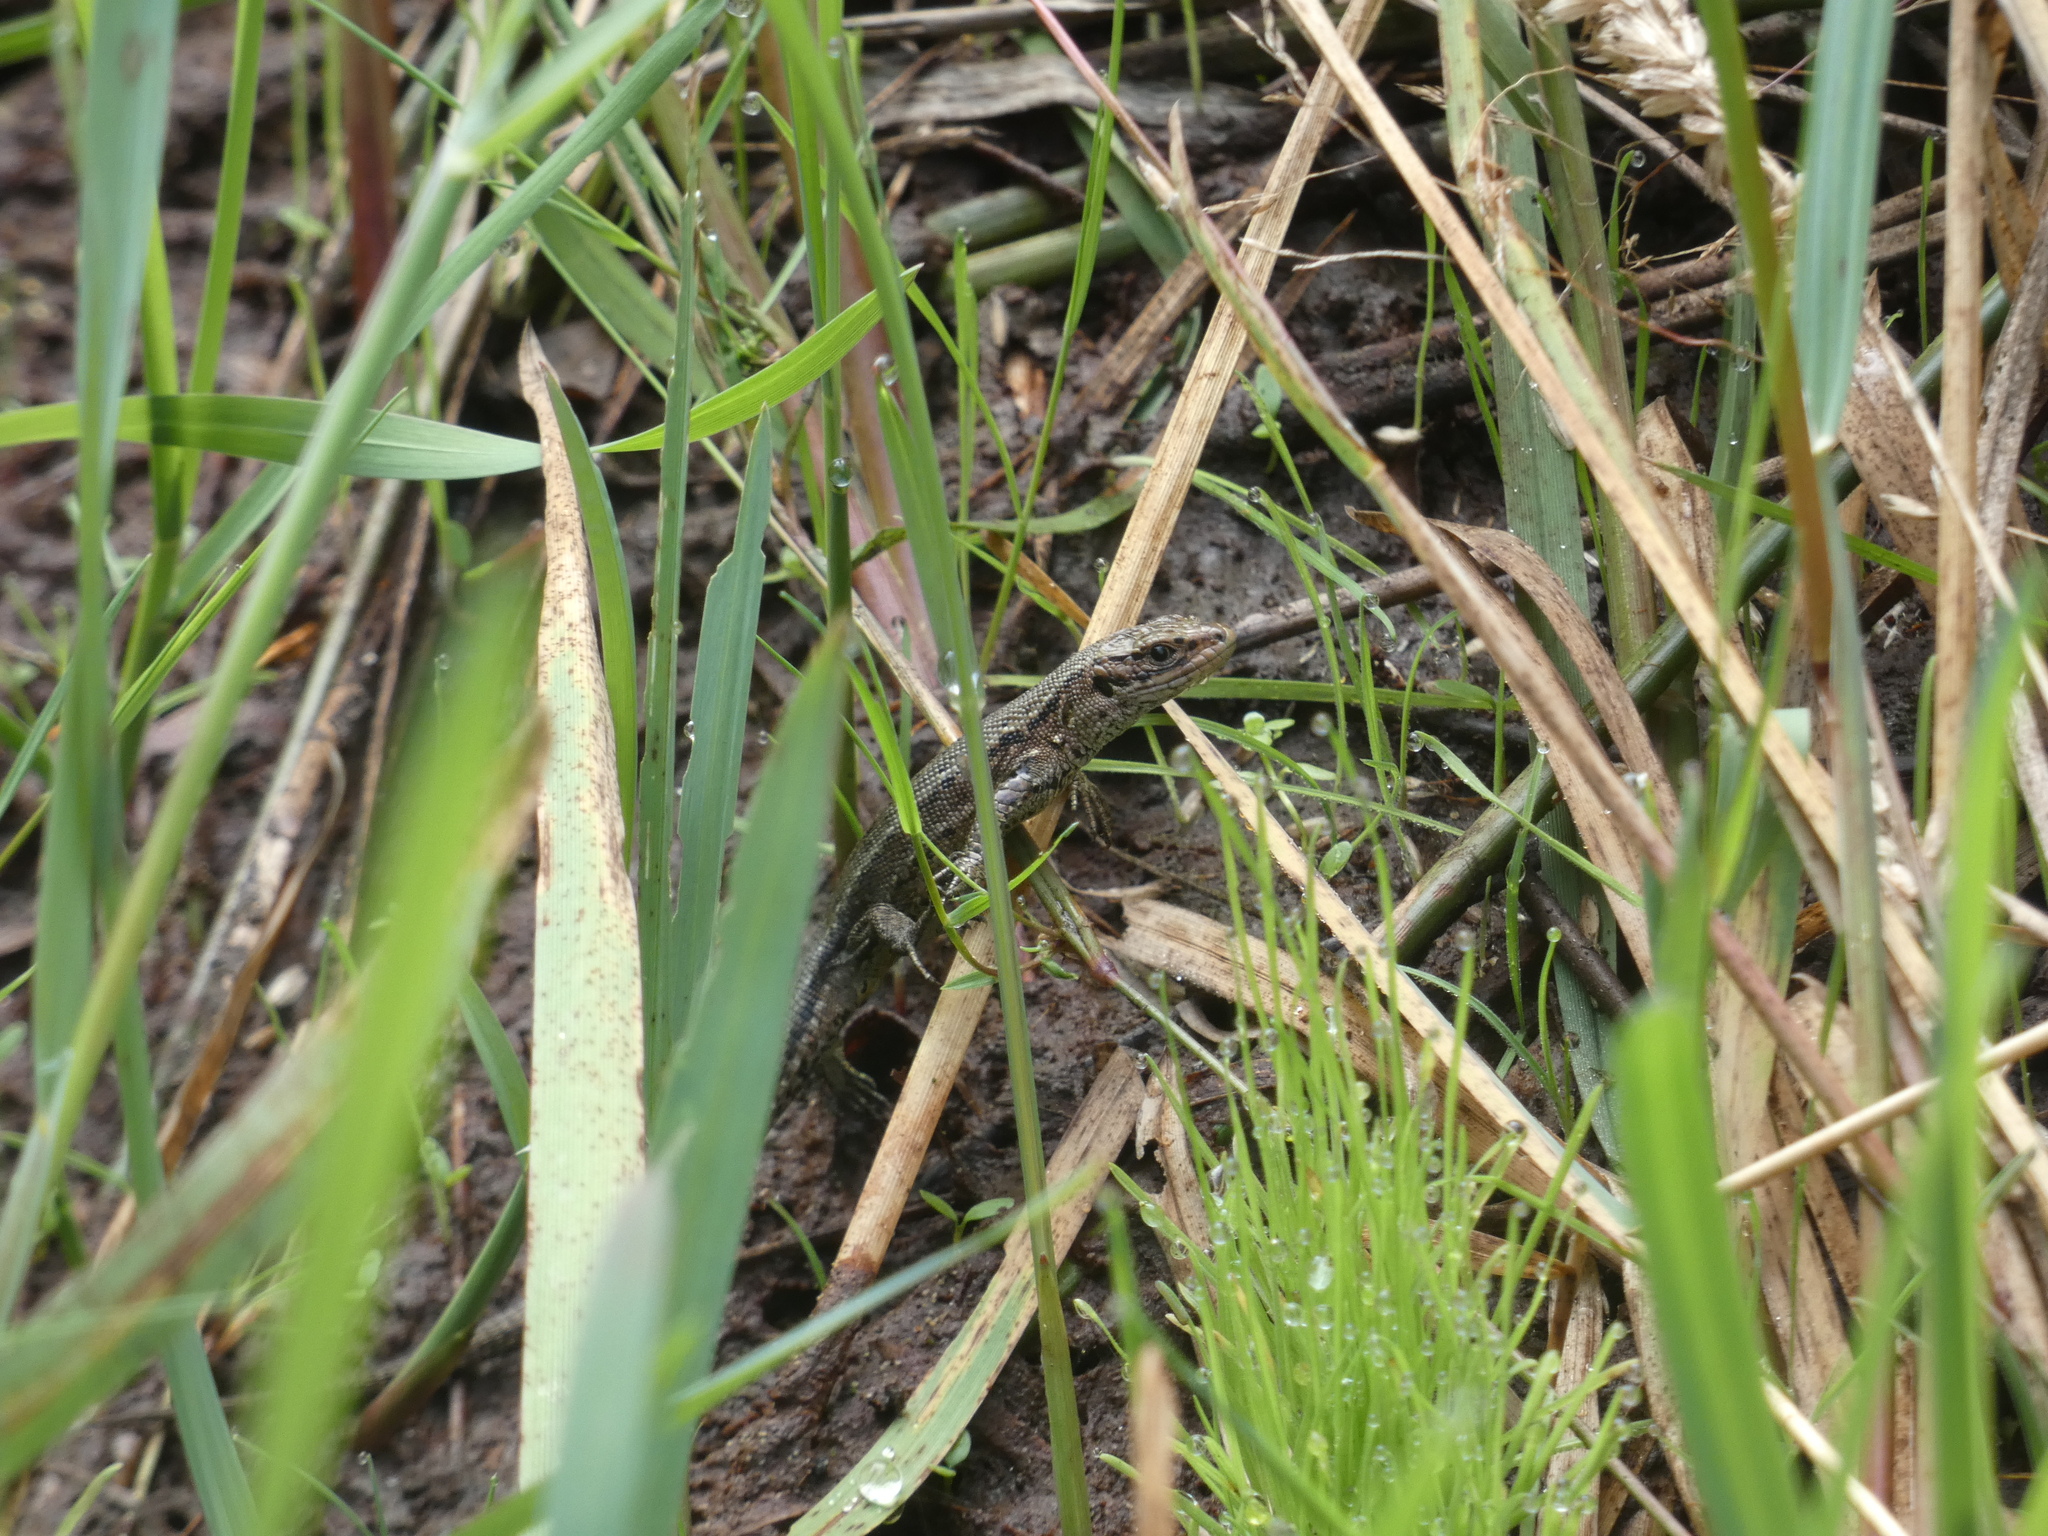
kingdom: Animalia
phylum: Chordata
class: Squamata
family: Lacertidae
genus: Zootoca
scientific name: Zootoca vivipara
